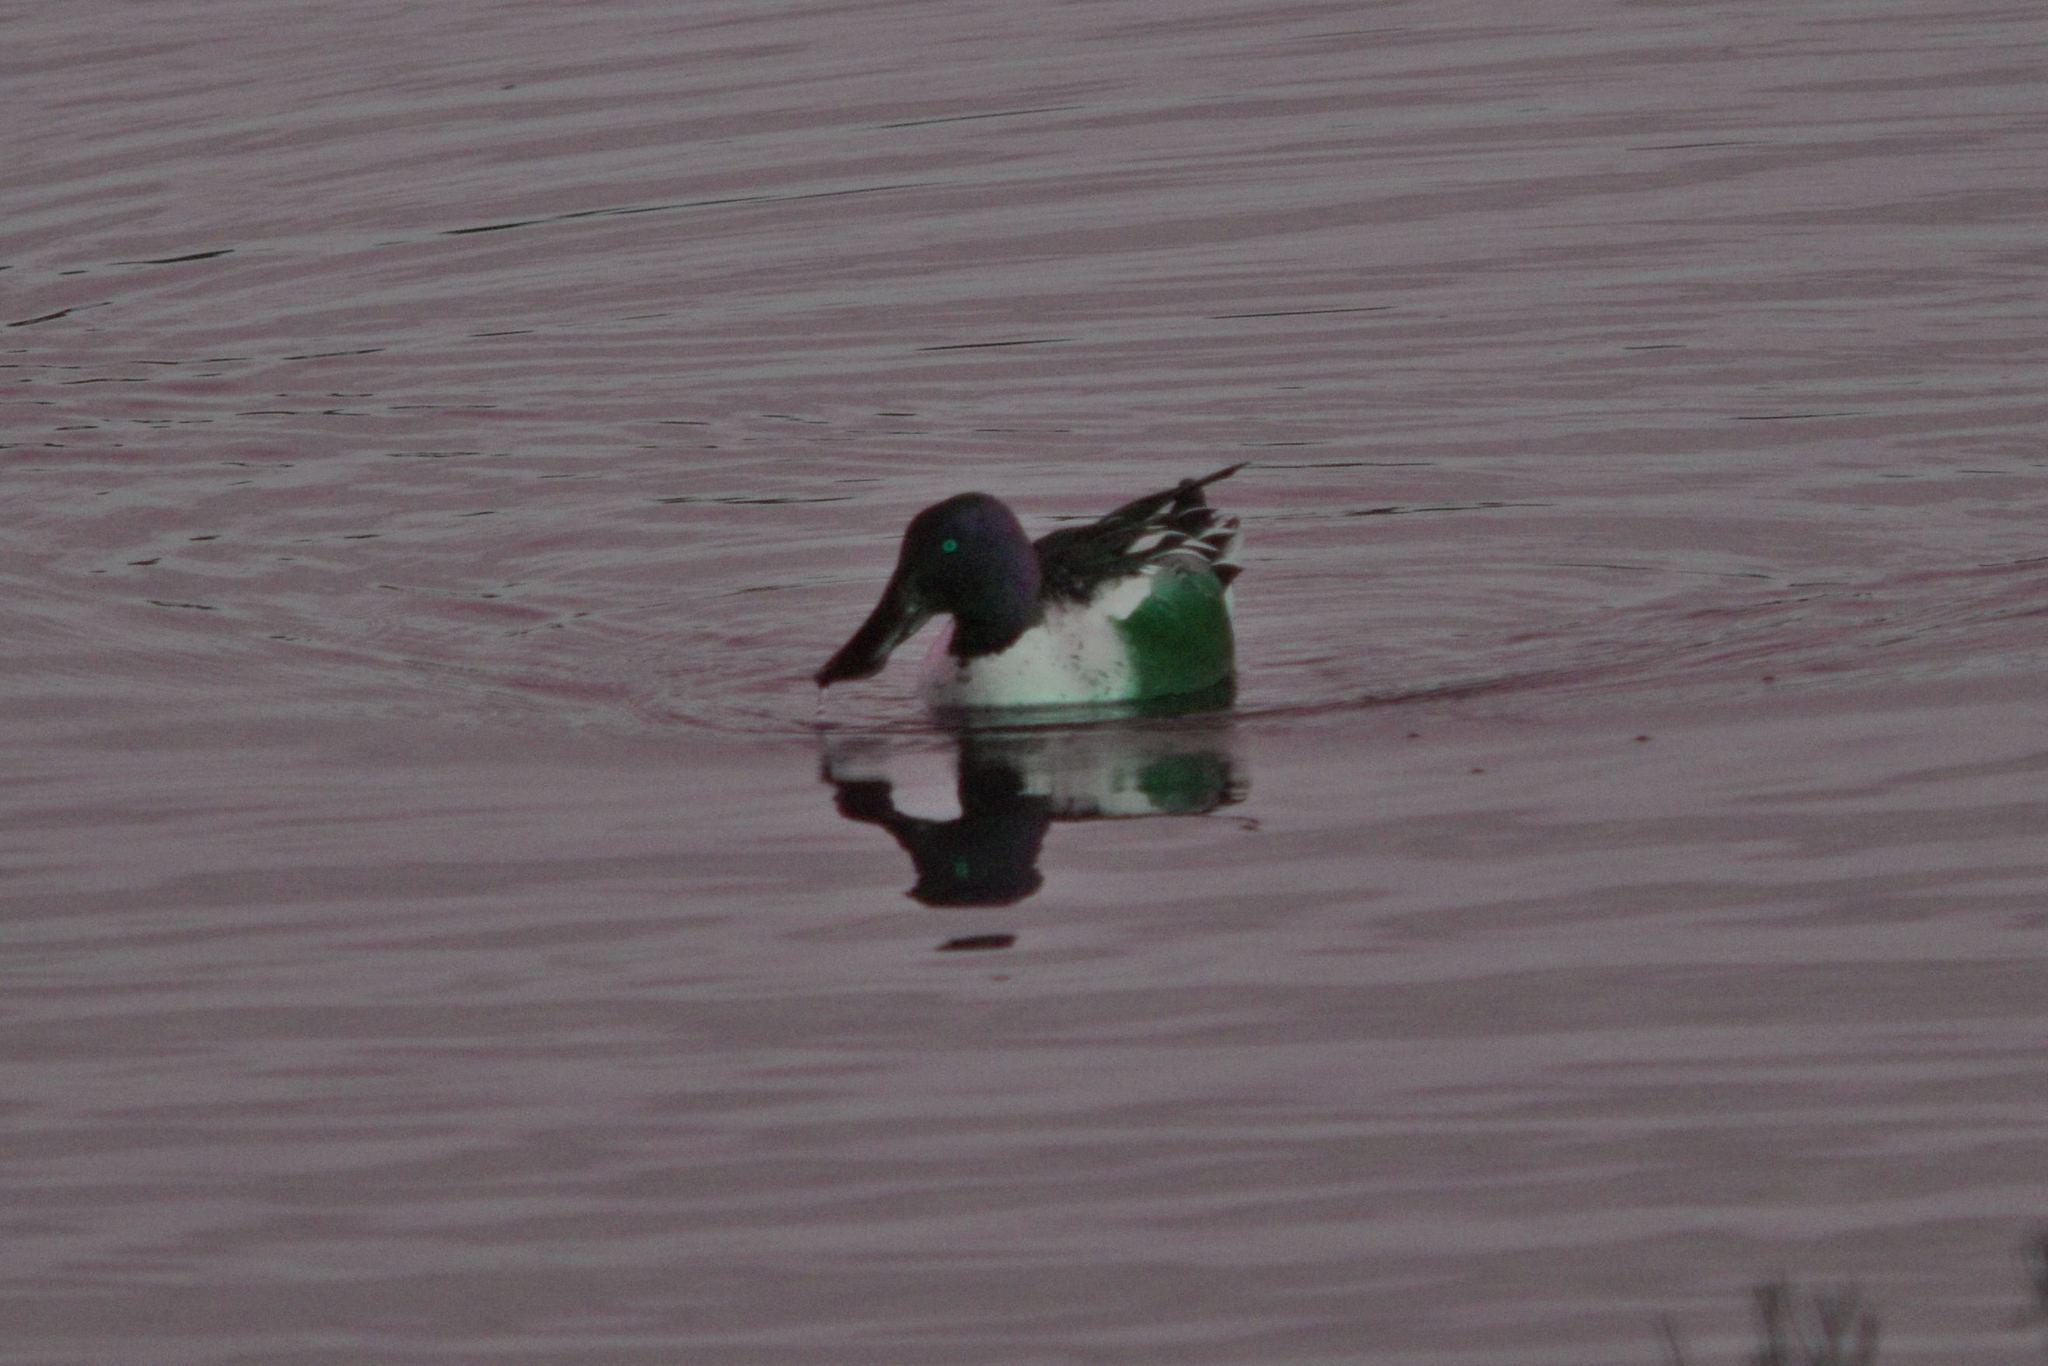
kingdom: Animalia
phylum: Chordata
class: Aves
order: Anseriformes
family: Anatidae
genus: Spatula
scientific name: Spatula clypeata
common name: Northern shoveler
